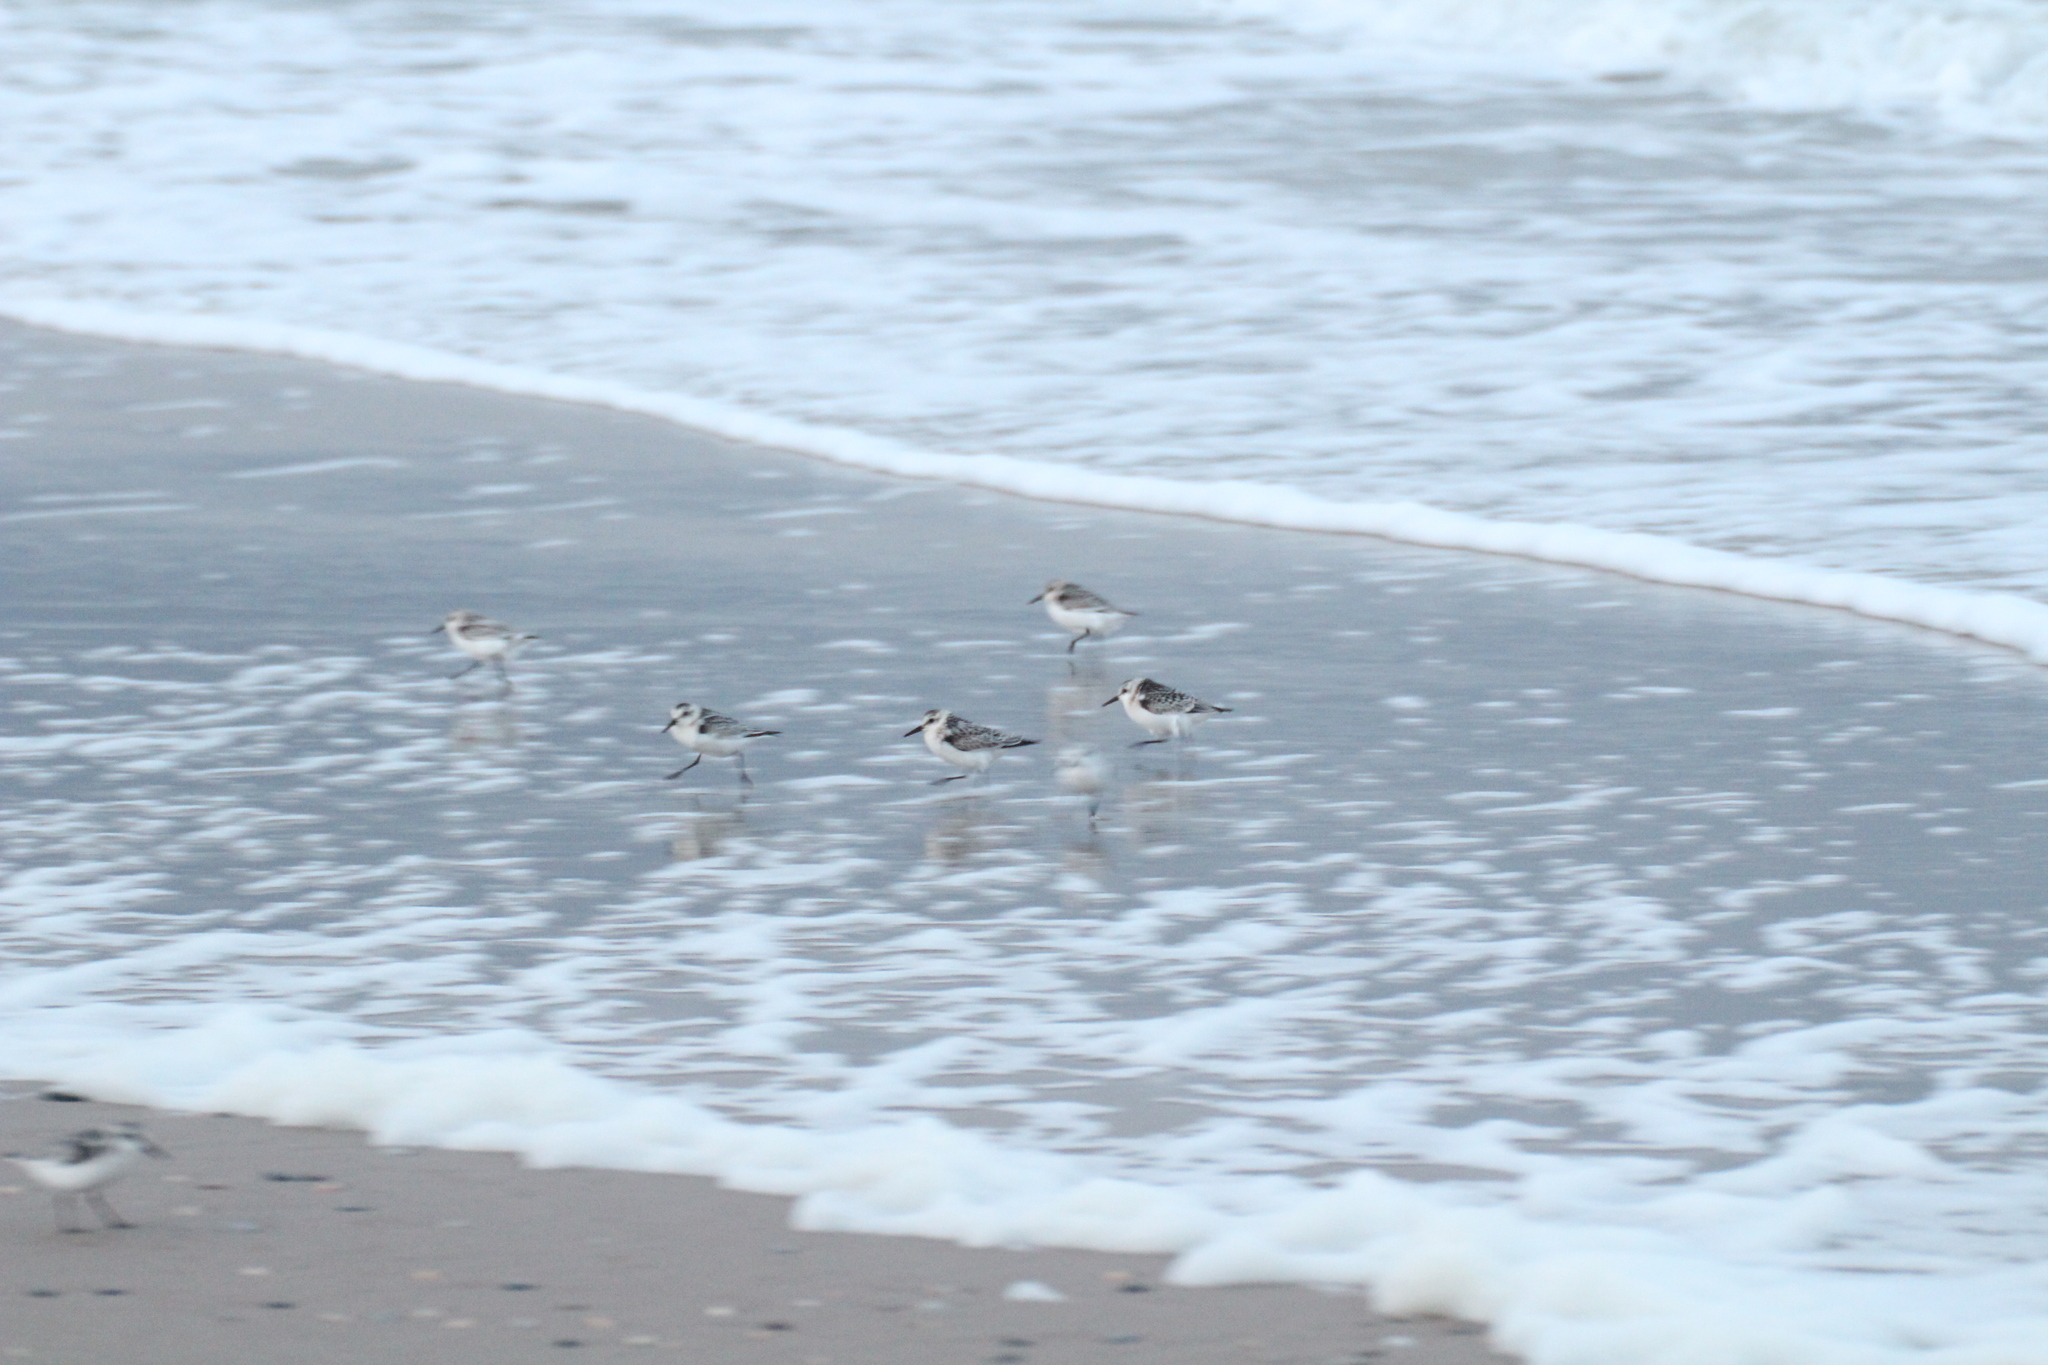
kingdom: Animalia
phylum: Chordata
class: Aves
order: Charadriiformes
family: Scolopacidae
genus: Calidris
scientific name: Calidris alba
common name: Sanderling
